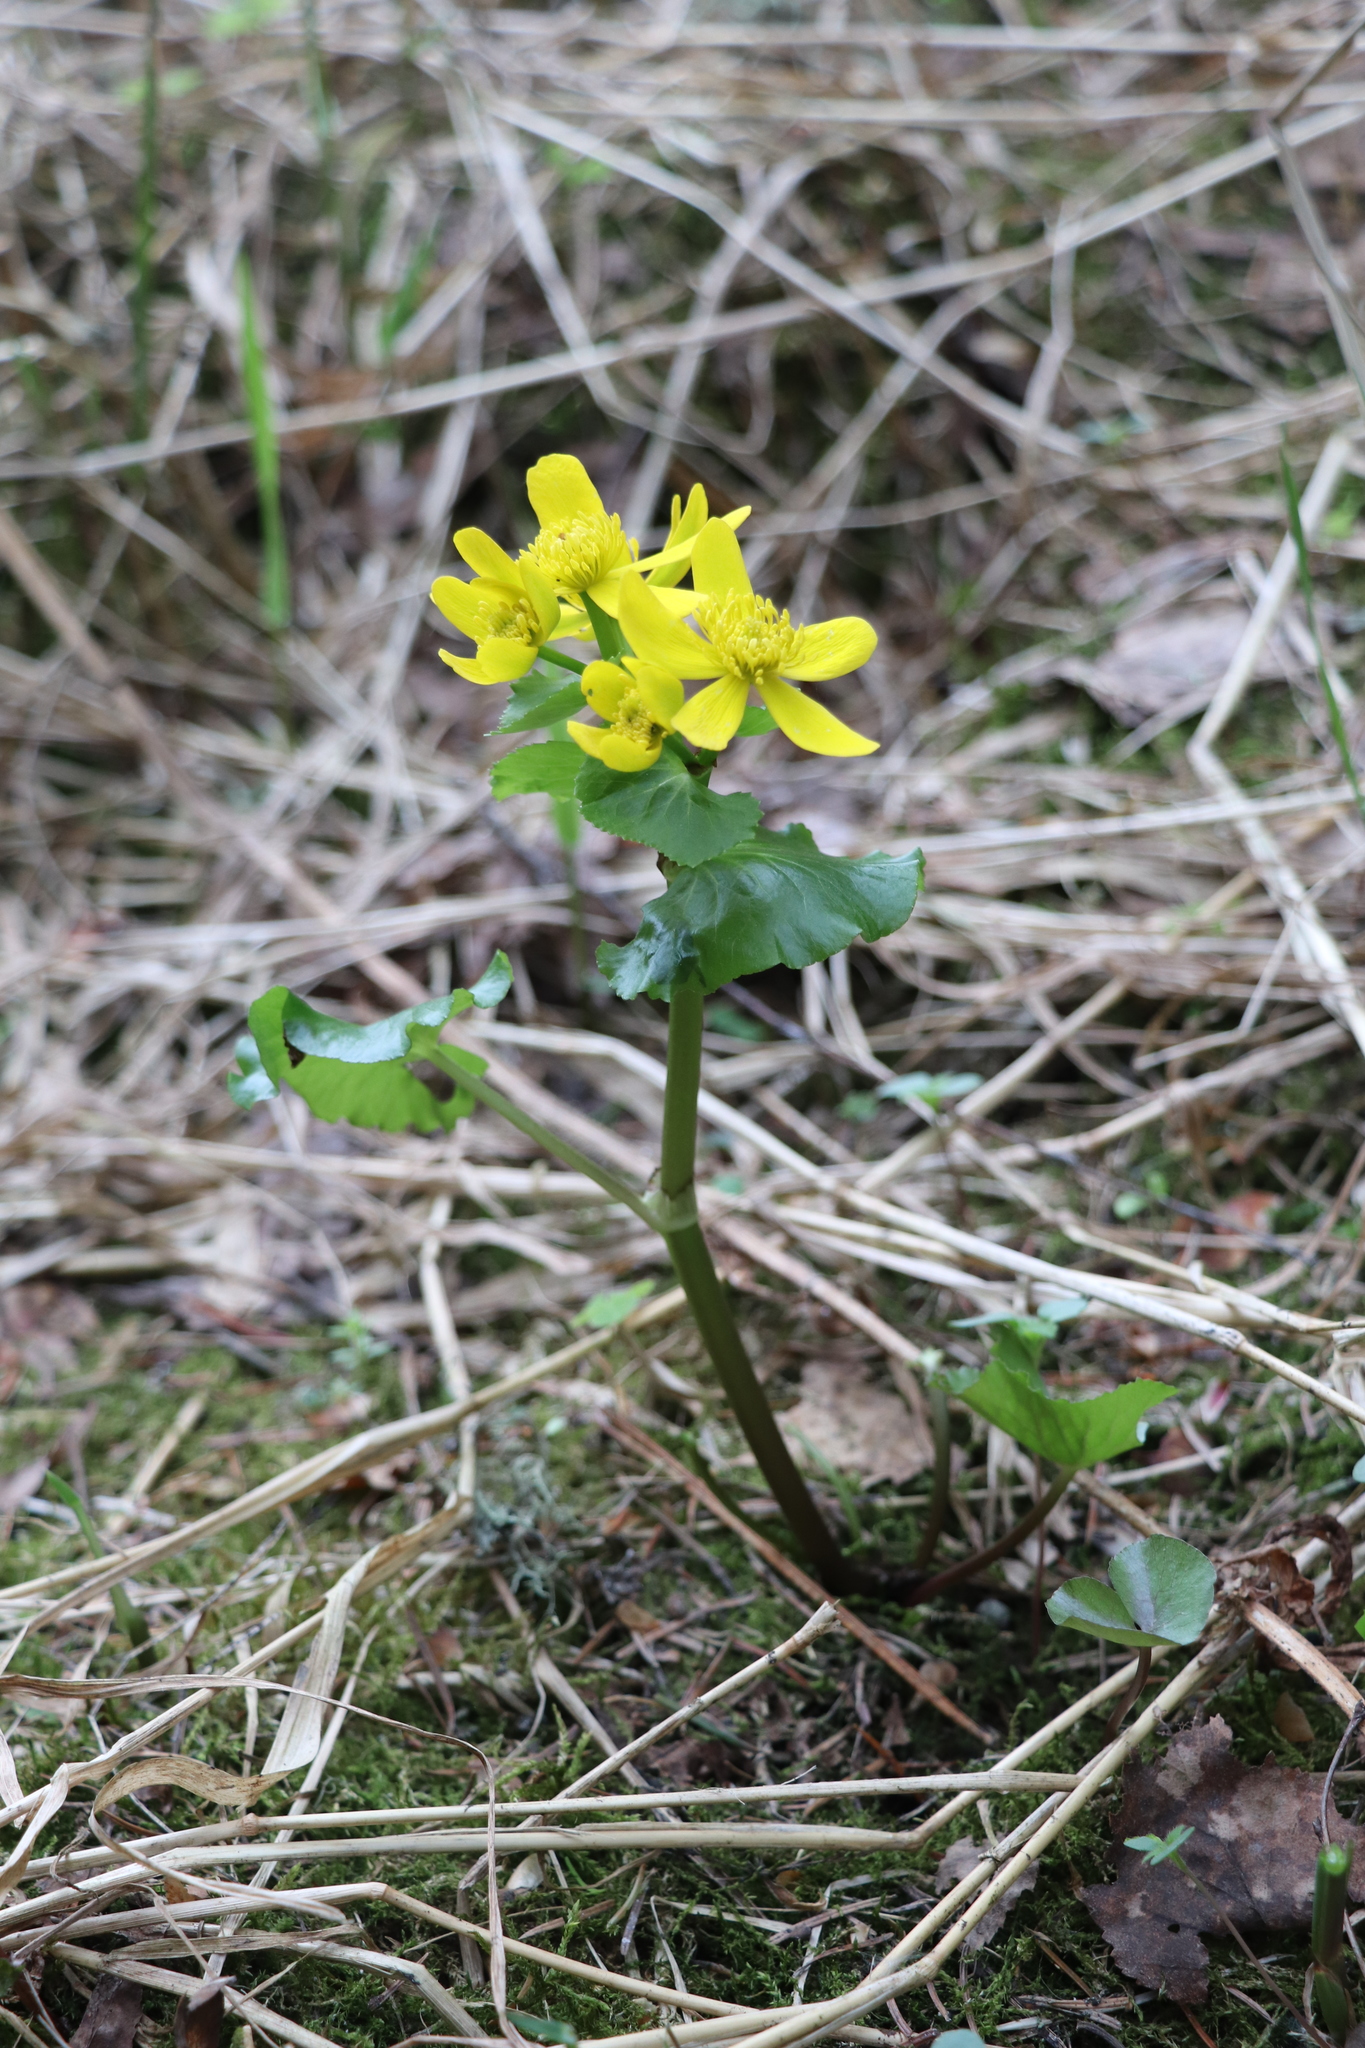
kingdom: Plantae
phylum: Tracheophyta
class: Magnoliopsida
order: Ranunculales
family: Ranunculaceae
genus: Caltha
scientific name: Caltha palustris
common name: Marsh marigold
